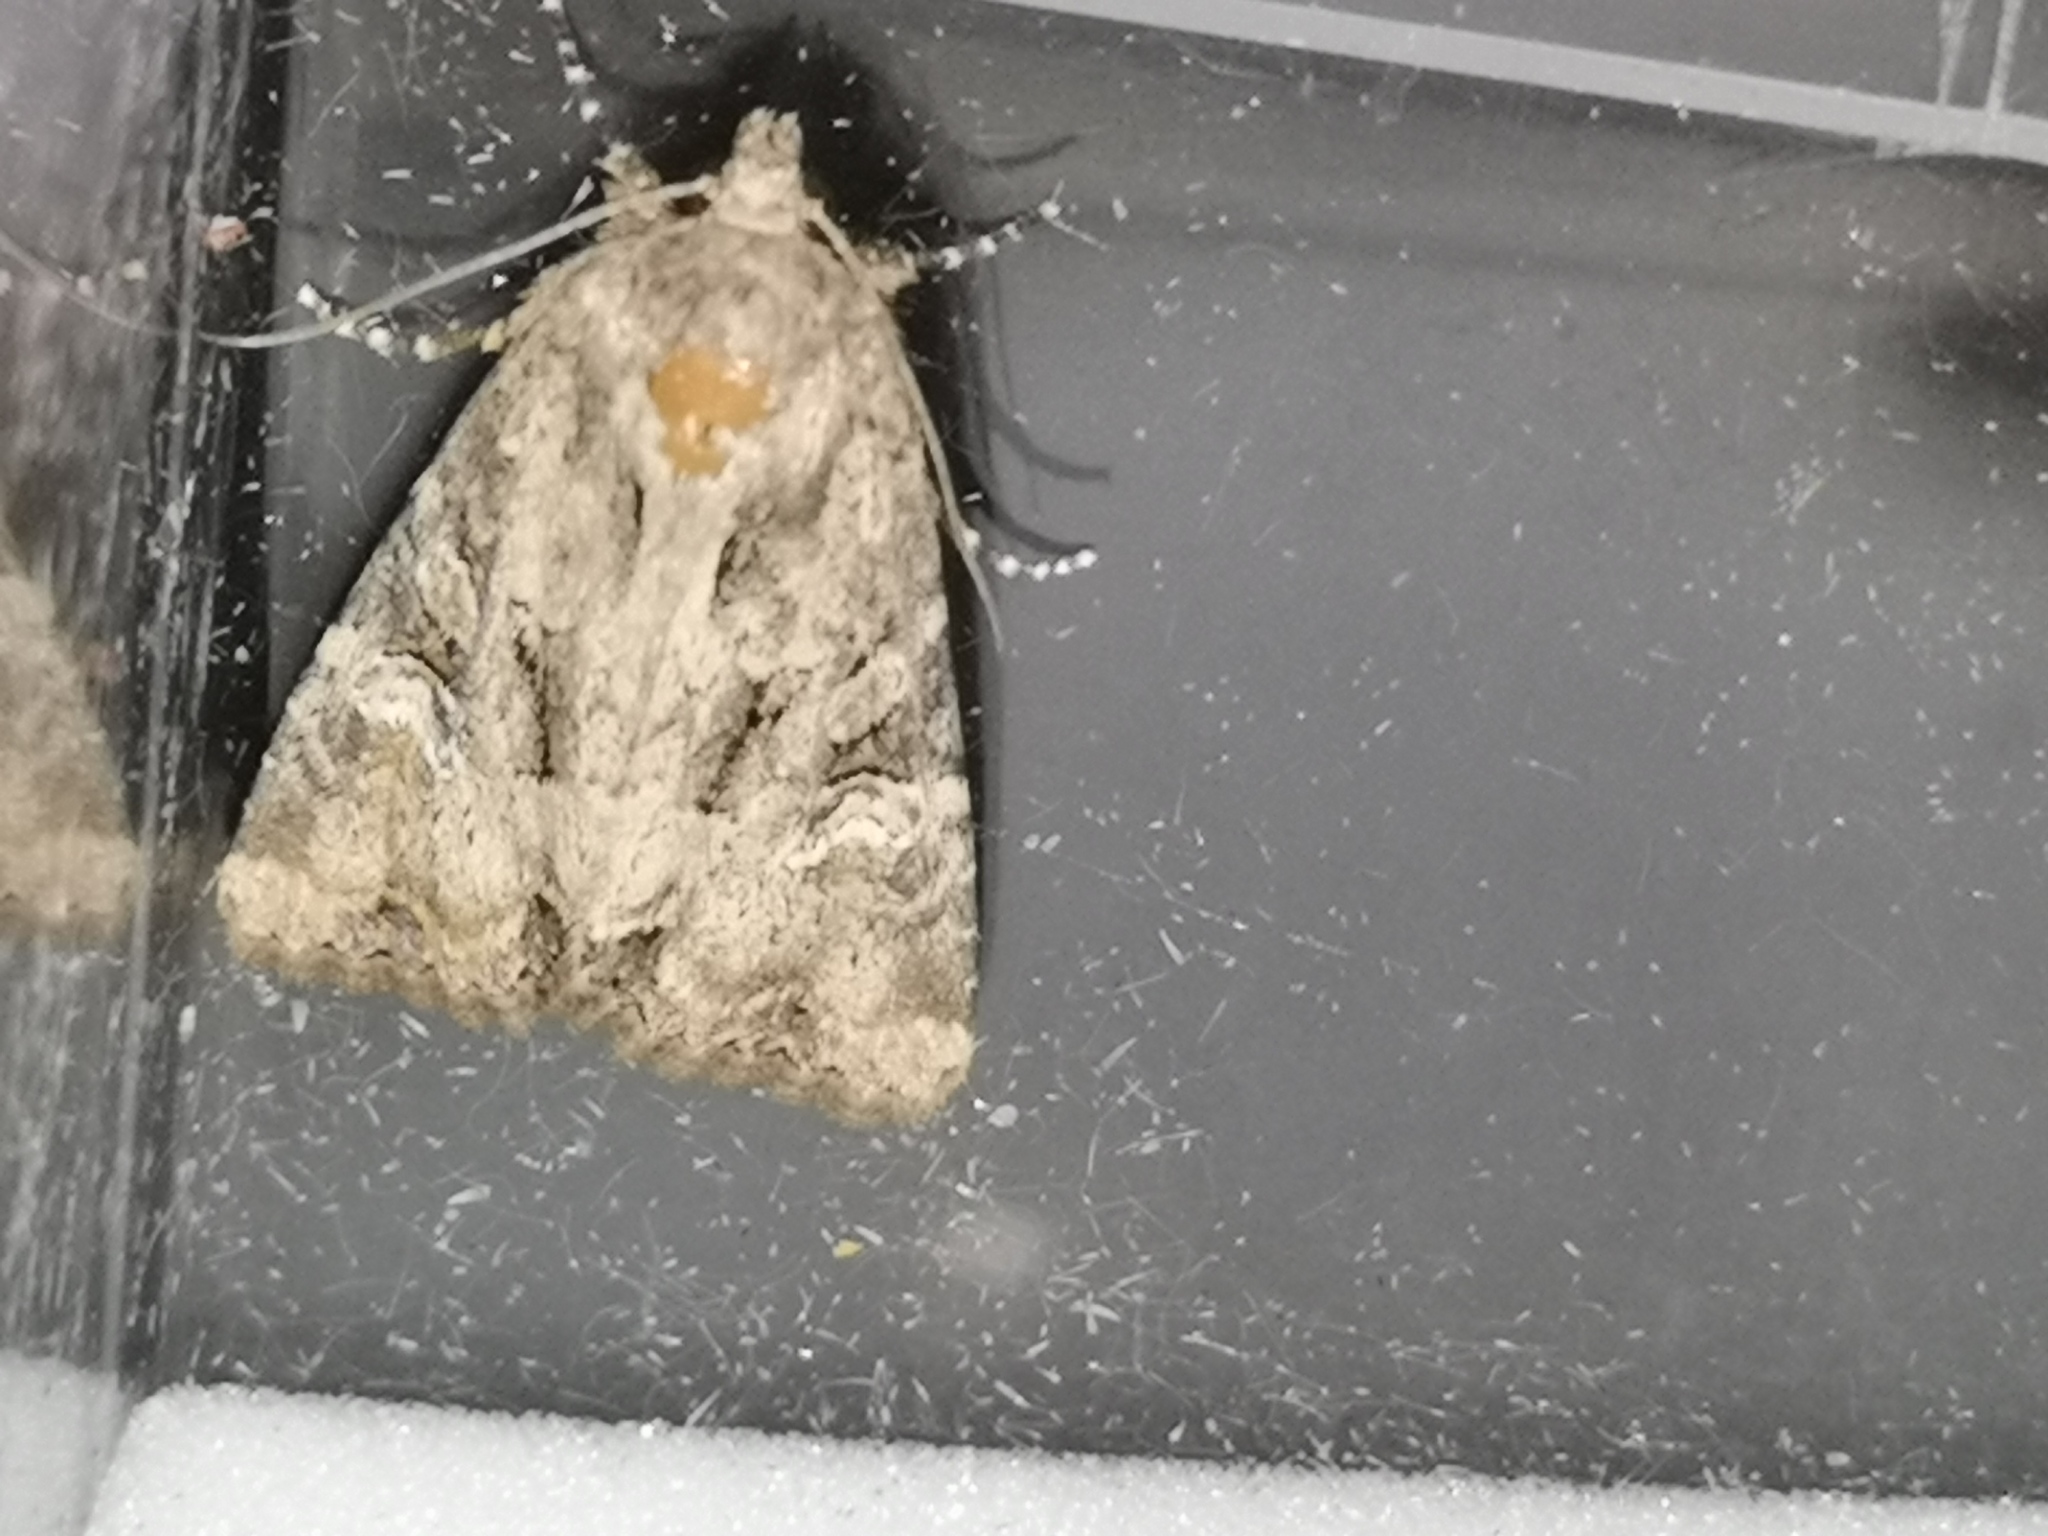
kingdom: Animalia
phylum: Arthropoda
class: Insecta
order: Lepidoptera
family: Noctuidae
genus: Mesapamea
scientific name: Mesapamea
